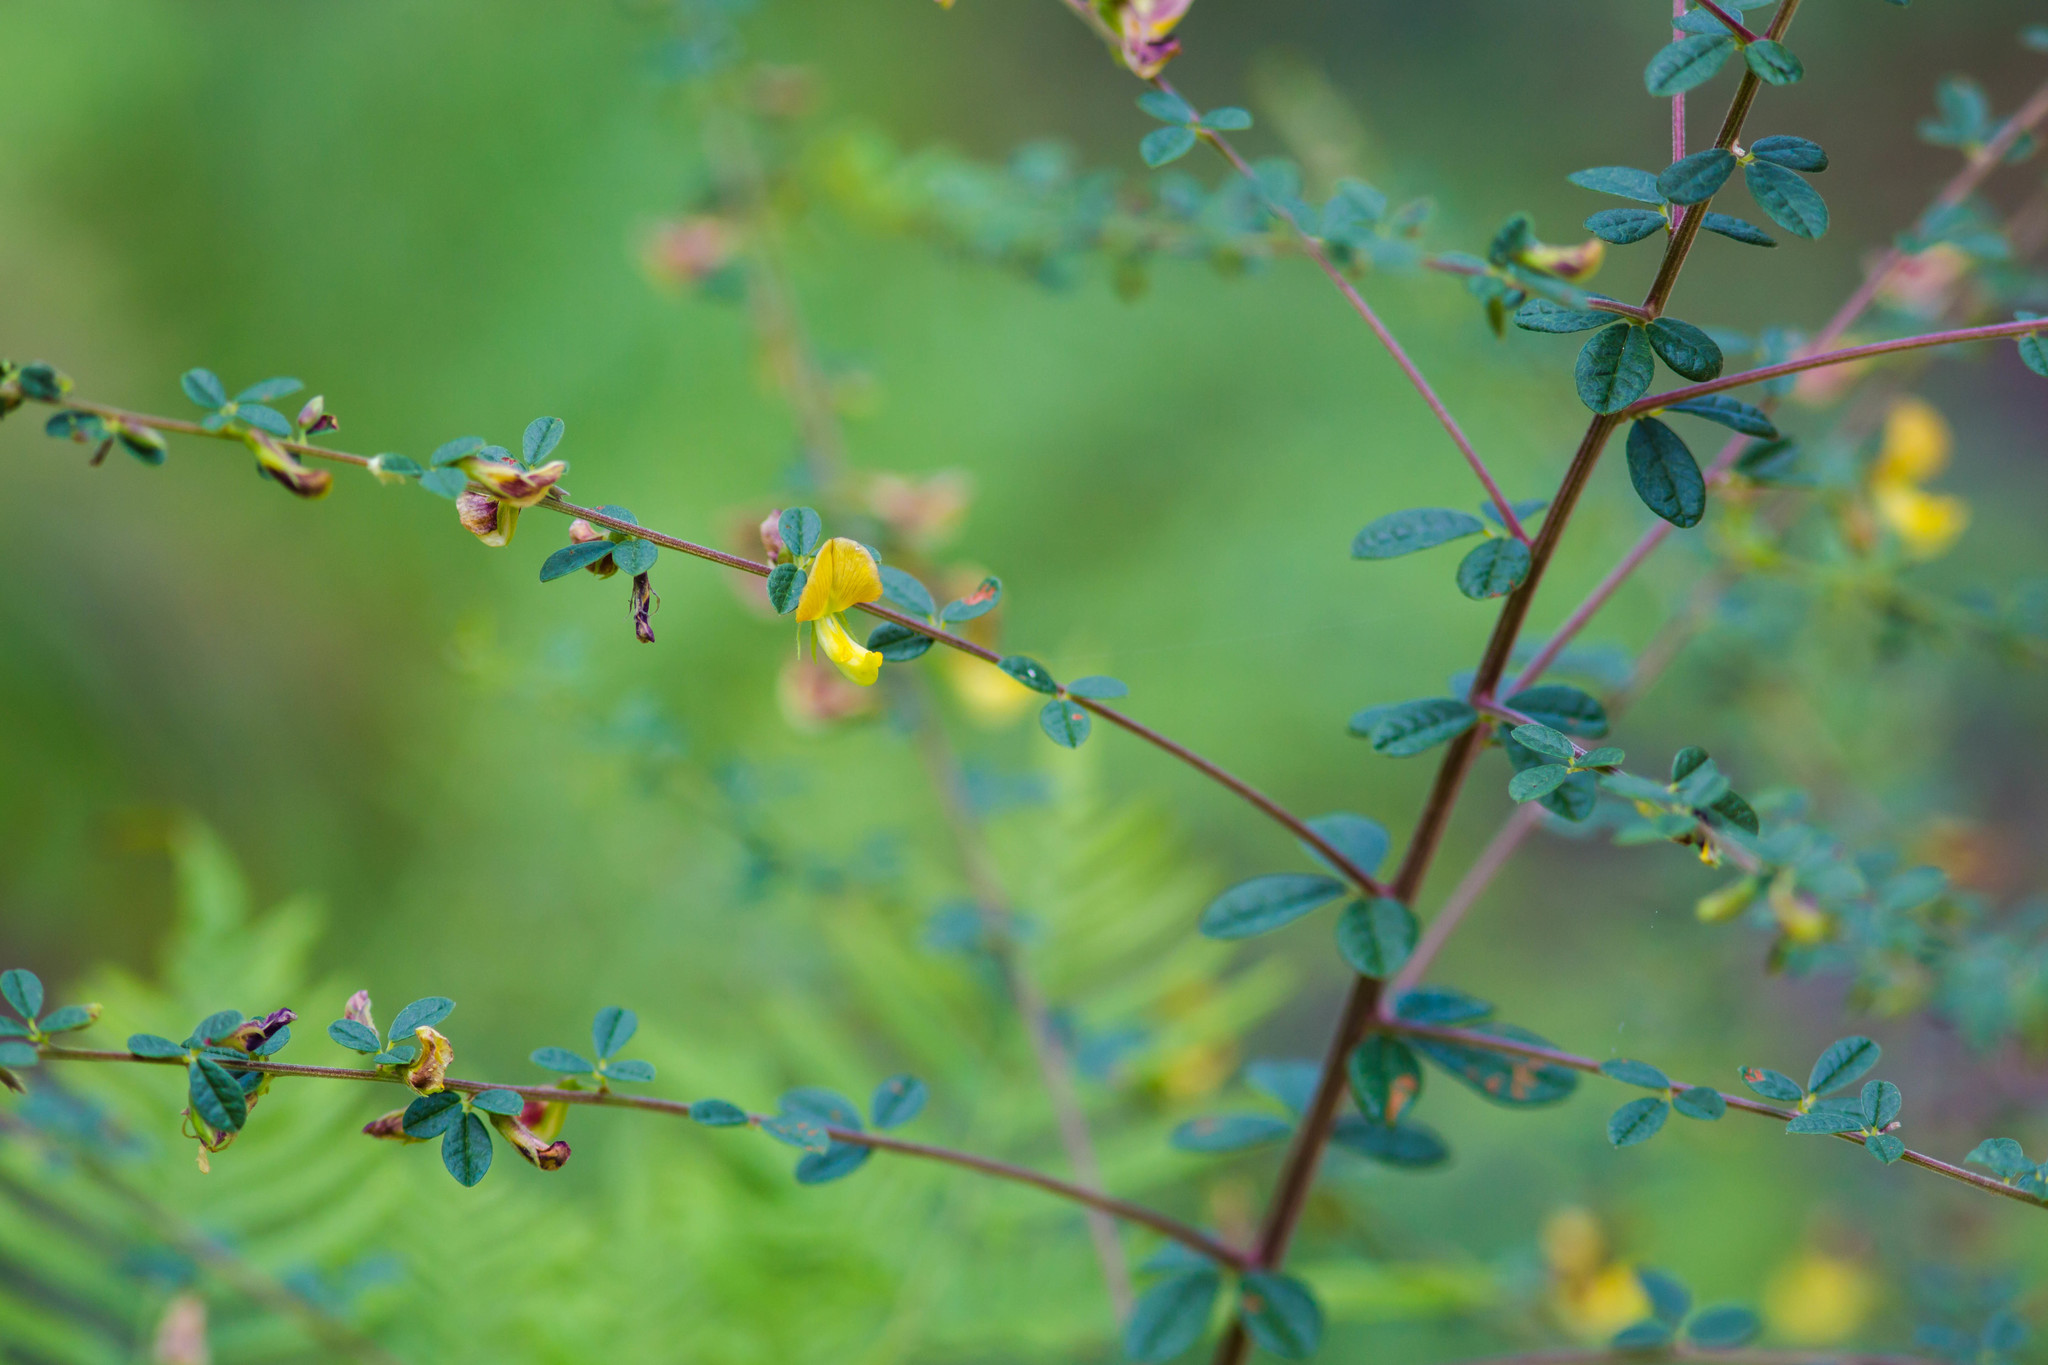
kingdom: Plantae
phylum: Tracheophyta
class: Magnoliopsida
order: Fabales
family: Fabaceae
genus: Rhynchosia
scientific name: Rhynchosia cytisoides
